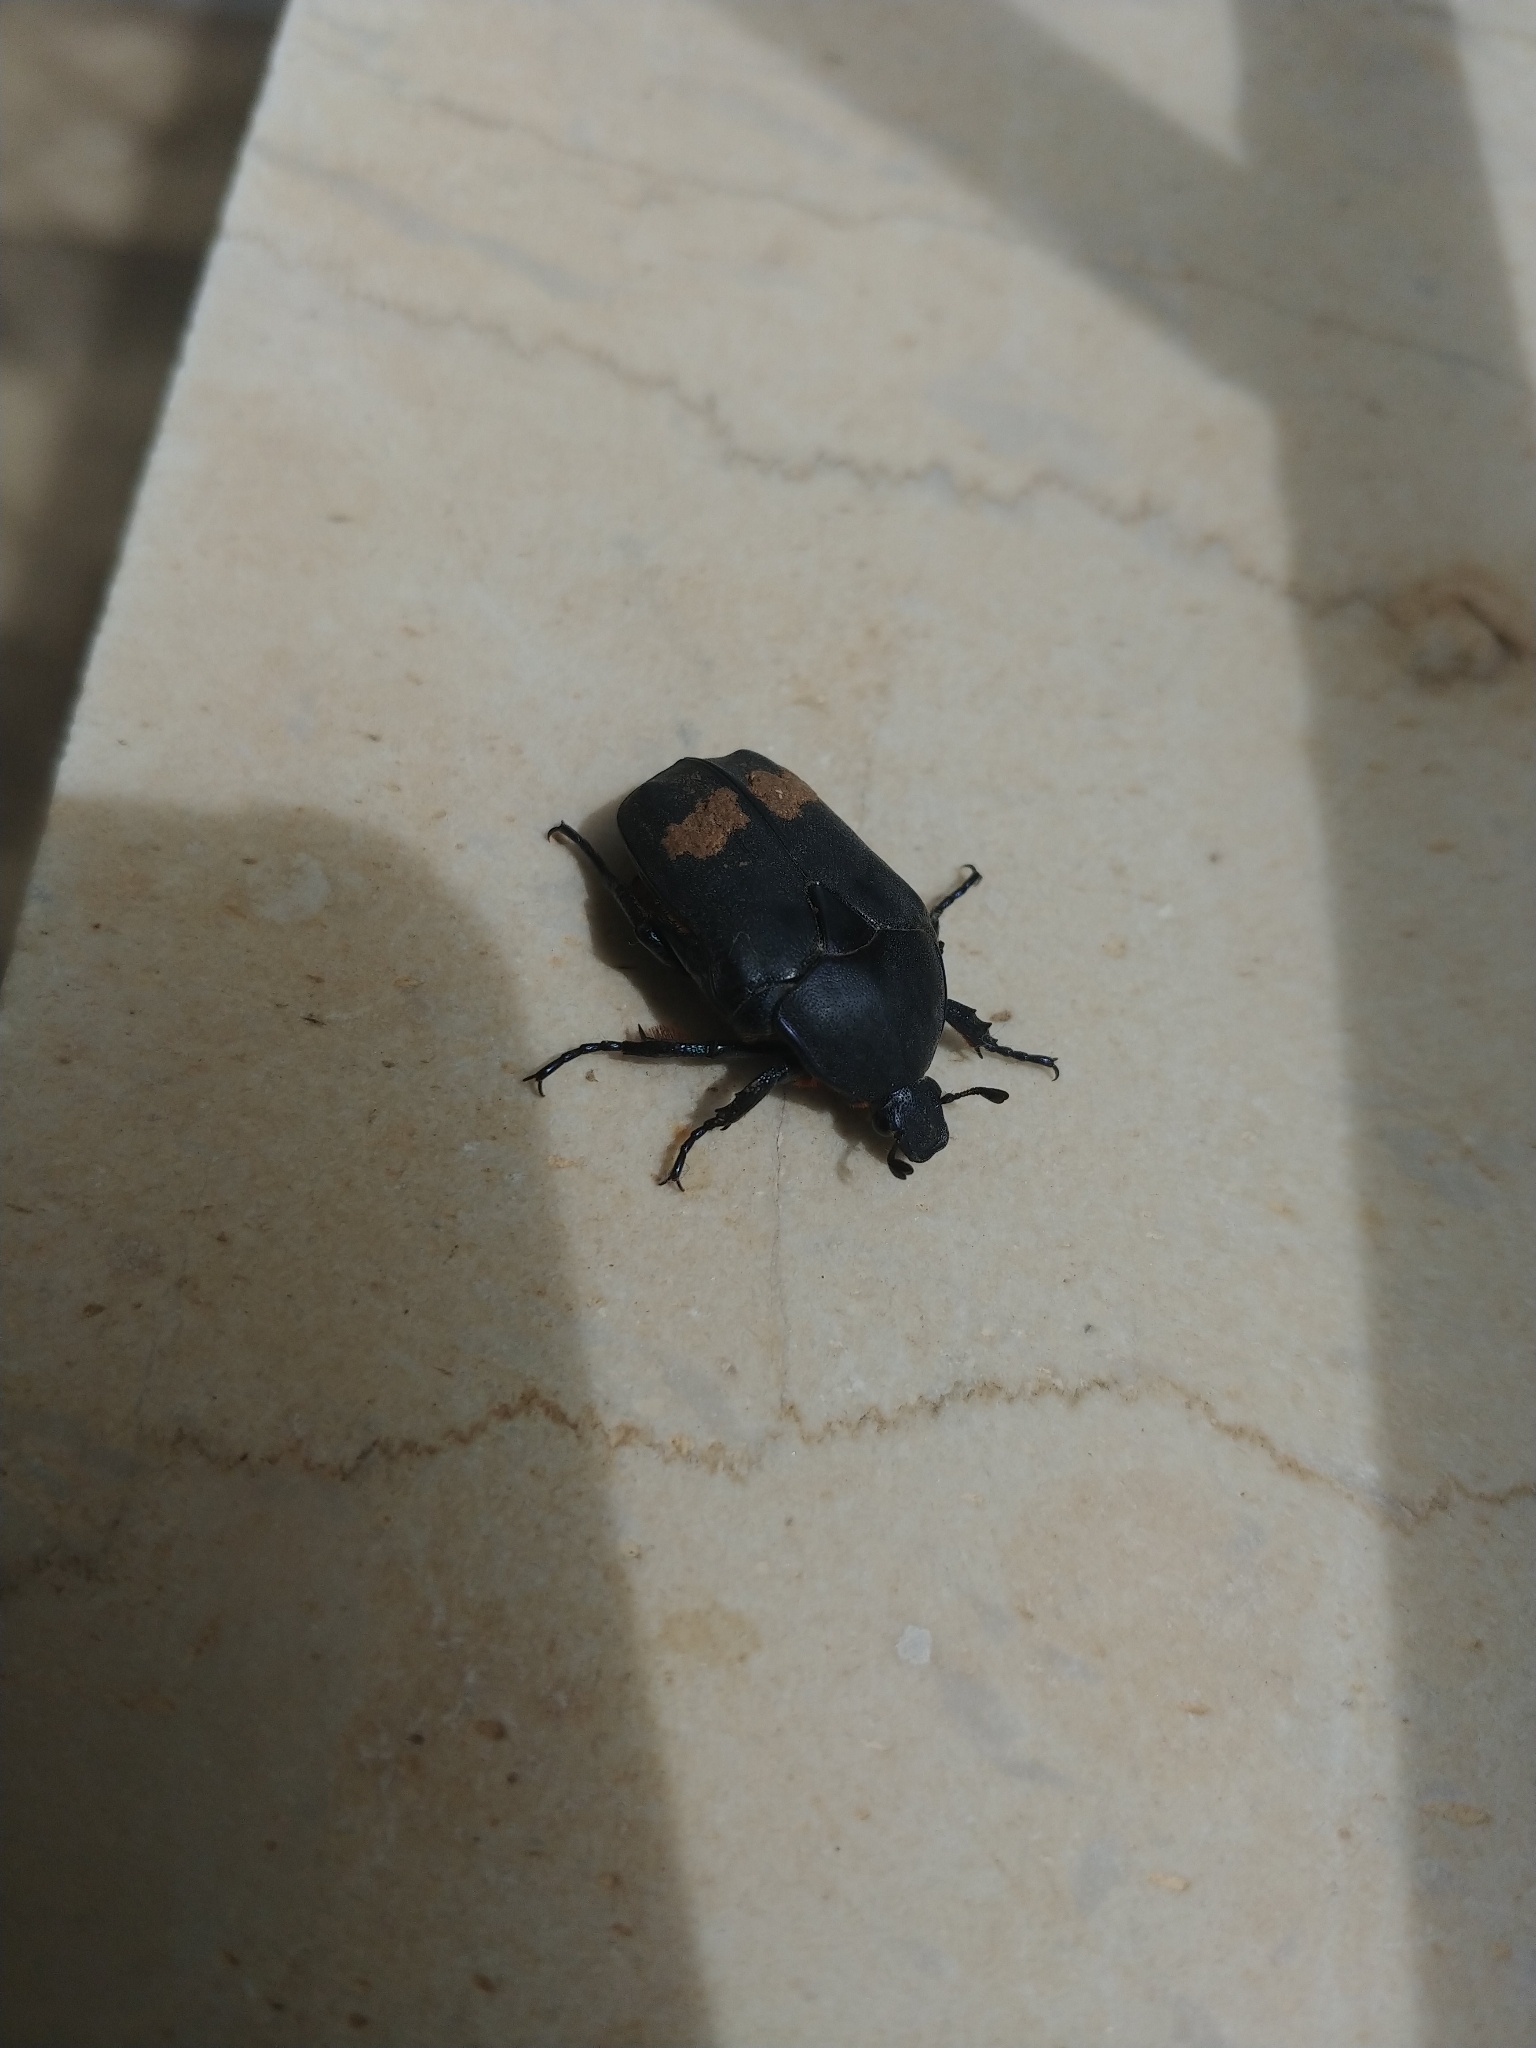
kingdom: Animalia
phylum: Arthropoda
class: Insecta
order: Coleoptera
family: Scarabaeidae
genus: Protaetia
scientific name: Protaetia cretica
